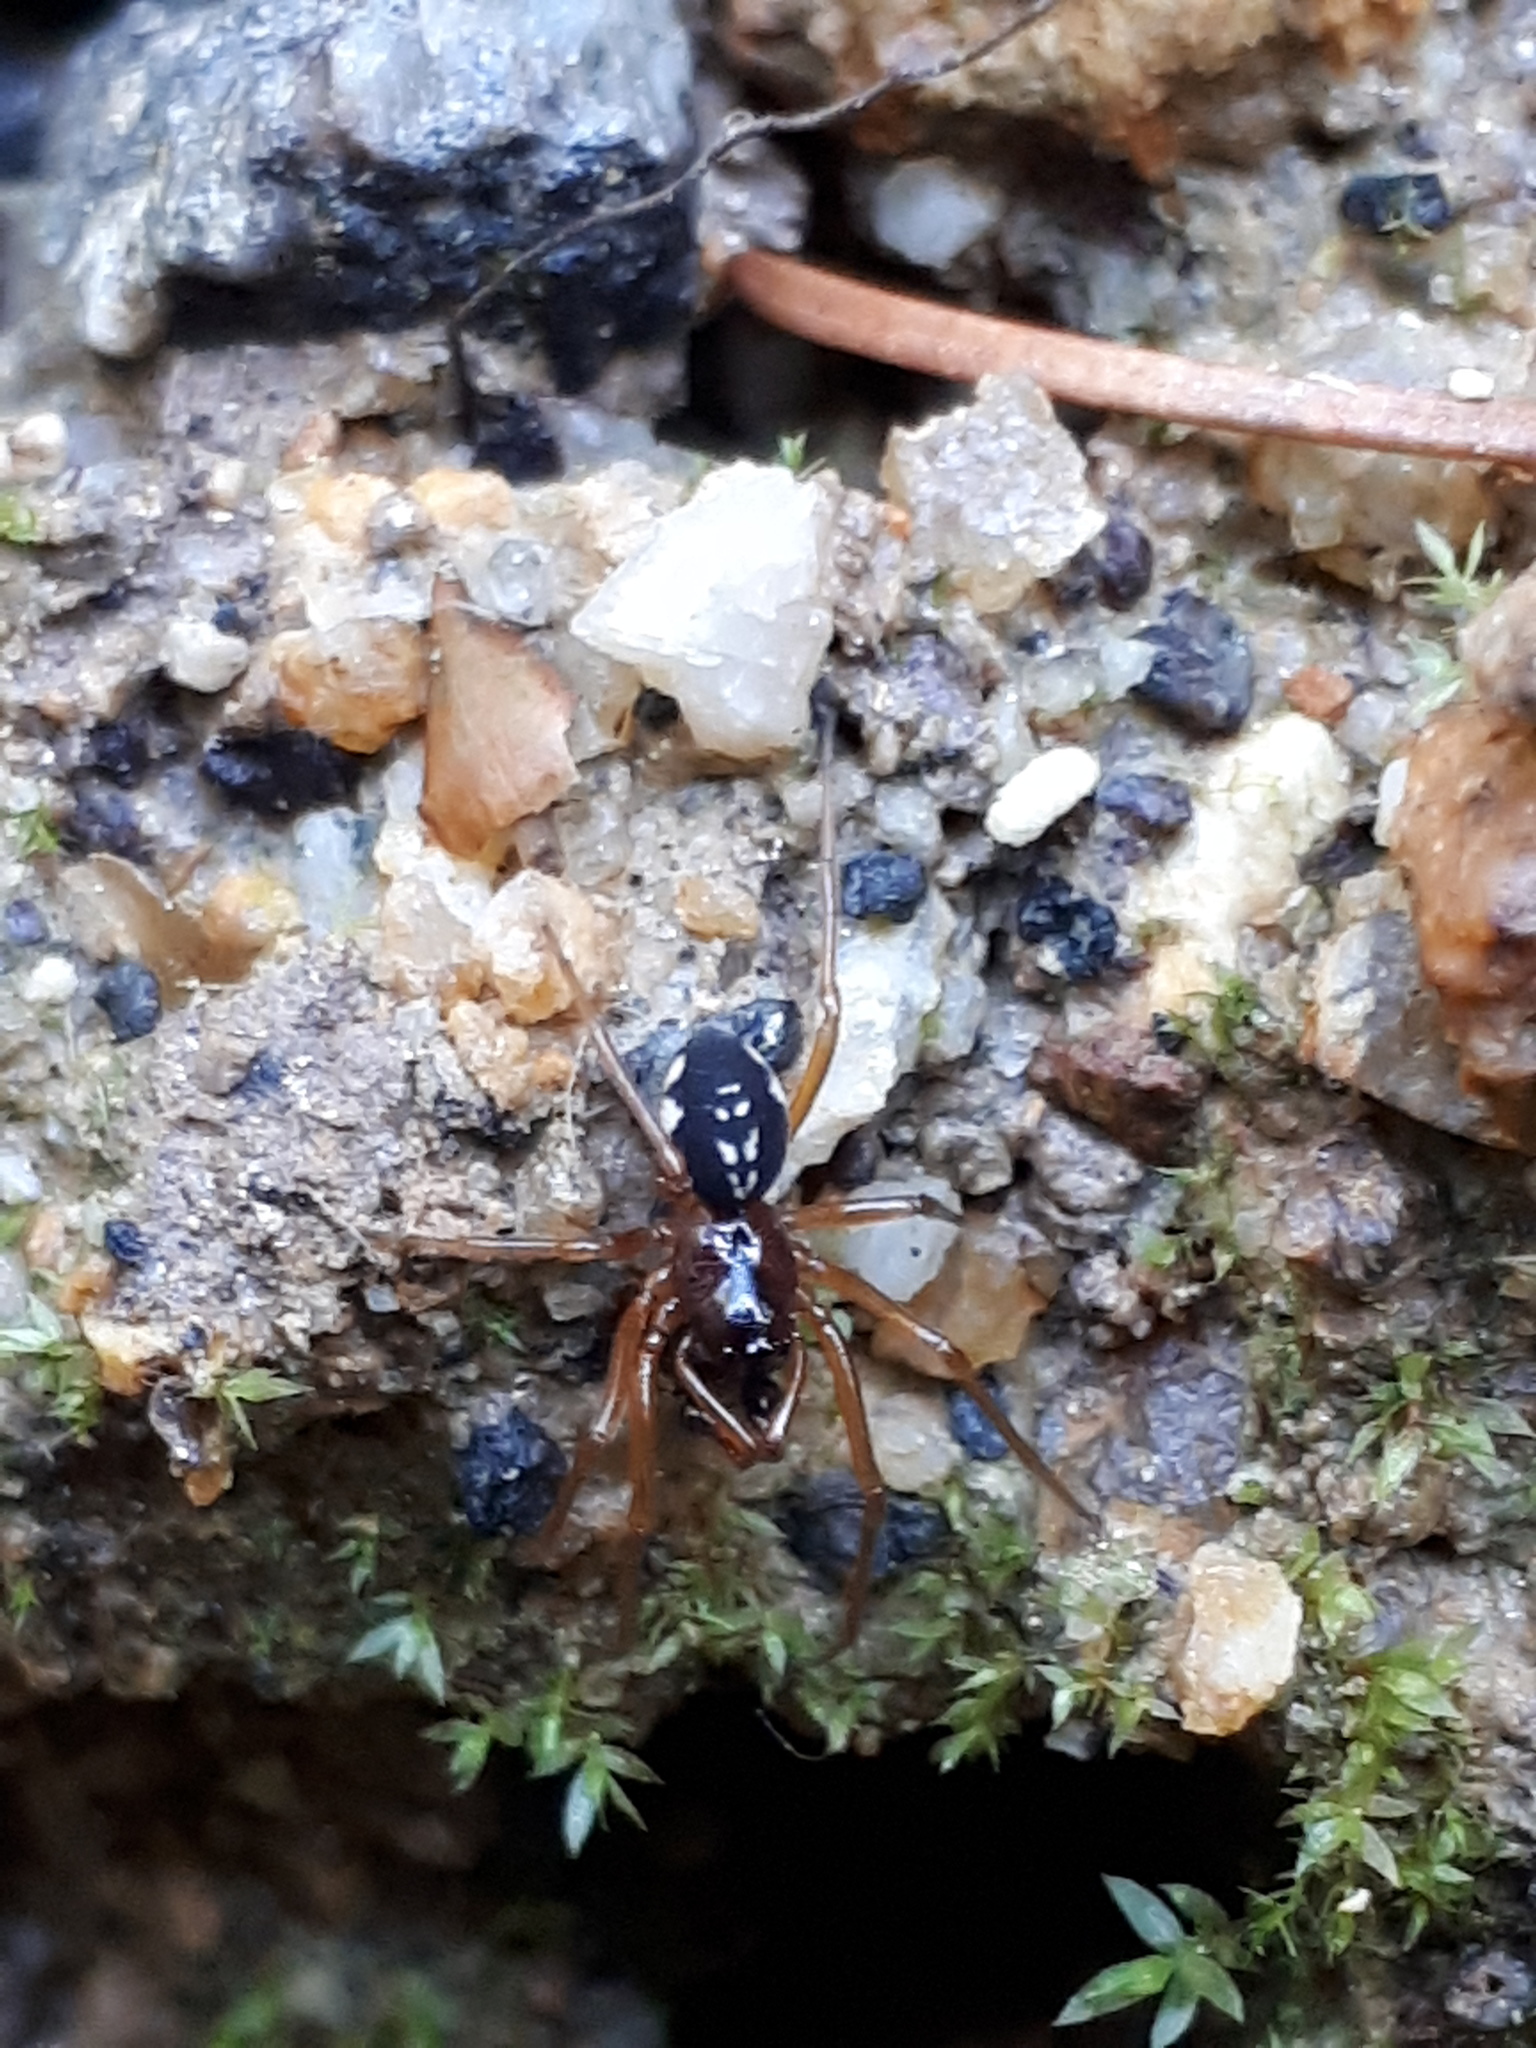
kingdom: Animalia
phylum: Arthropoda
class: Arachnida
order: Araneae
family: Tetragnathidae
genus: Pachygnatha
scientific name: Pachygnatha degeeri
